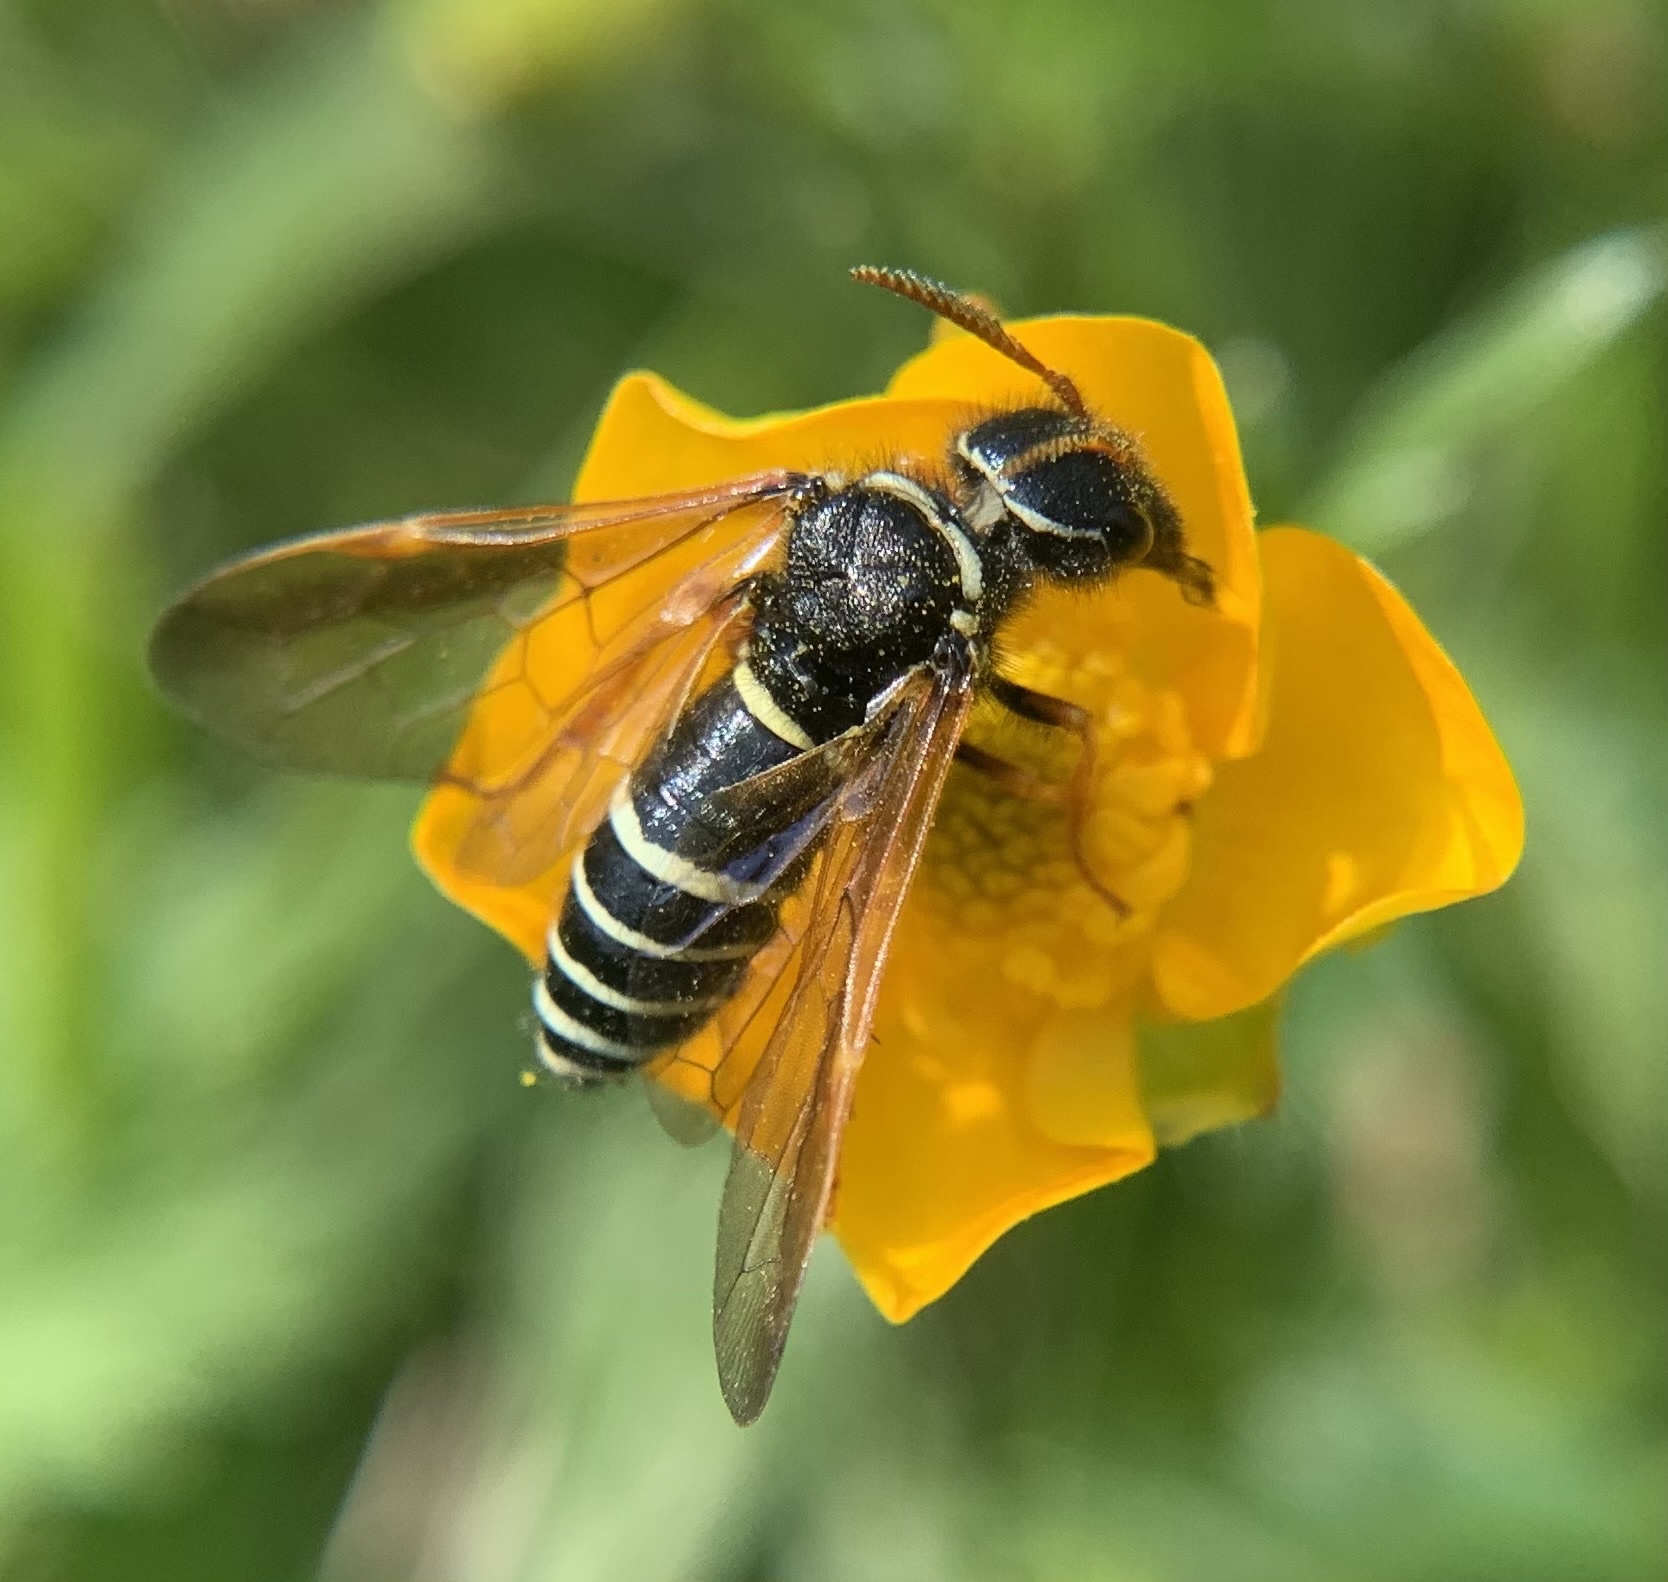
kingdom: Animalia
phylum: Arthropoda
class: Insecta
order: Hymenoptera
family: Megalodontesidae
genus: Megalodontes
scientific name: Megalodontes cephalotes
